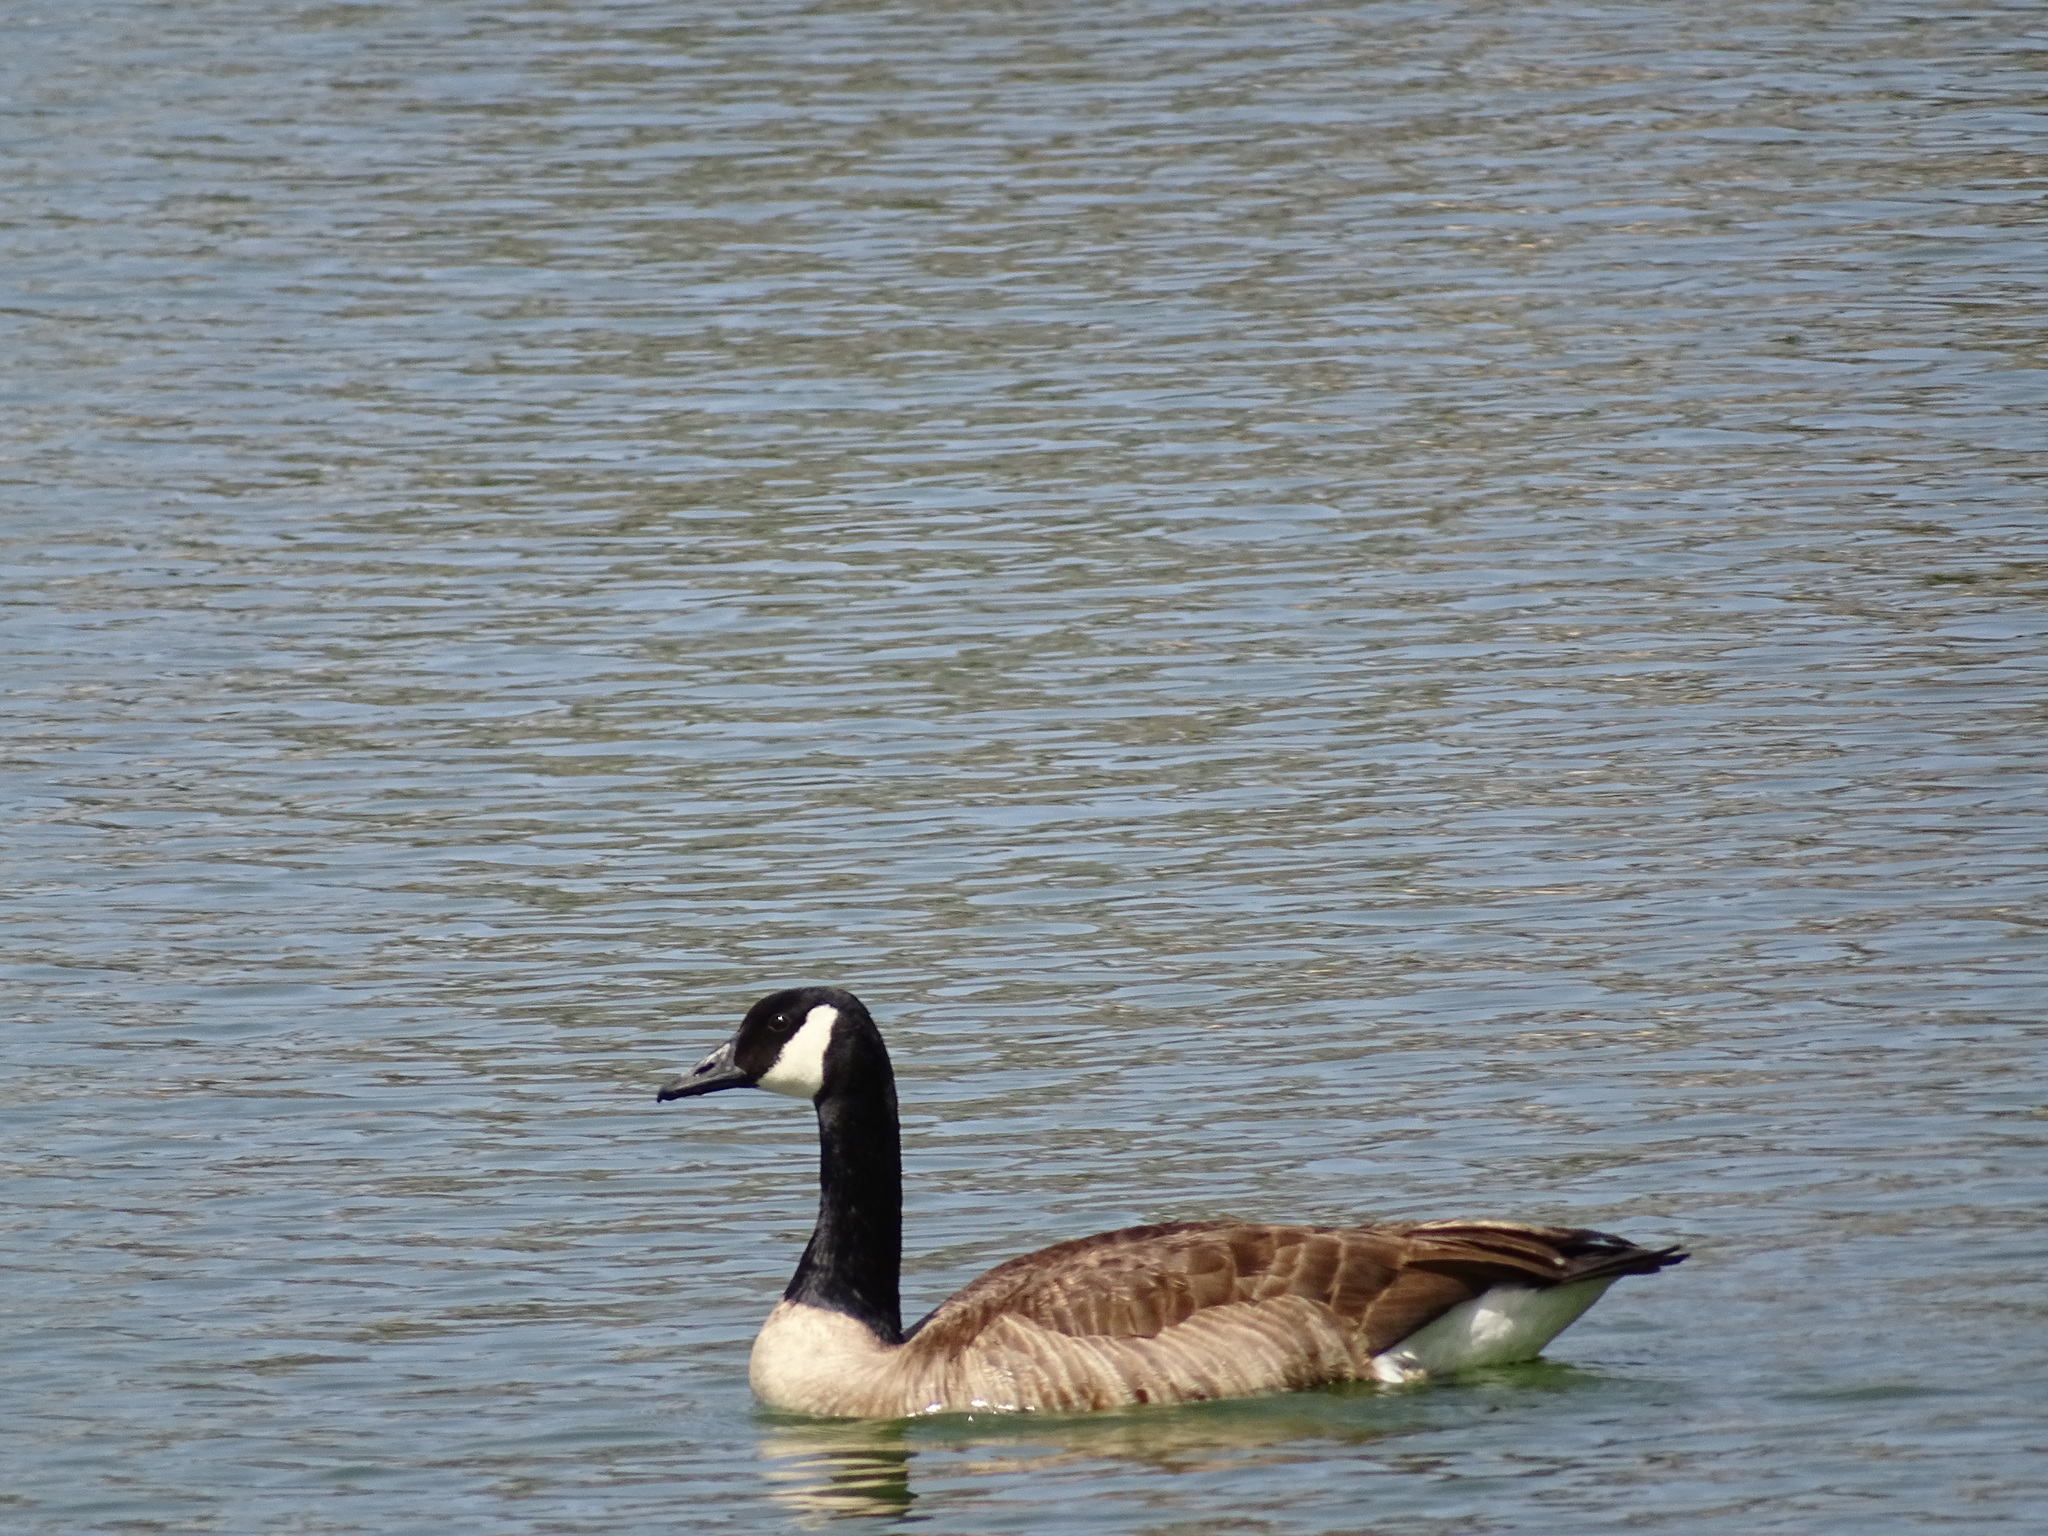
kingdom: Animalia
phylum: Chordata
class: Aves
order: Anseriformes
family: Anatidae
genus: Branta
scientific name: Branta canadensis
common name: Canada goose
